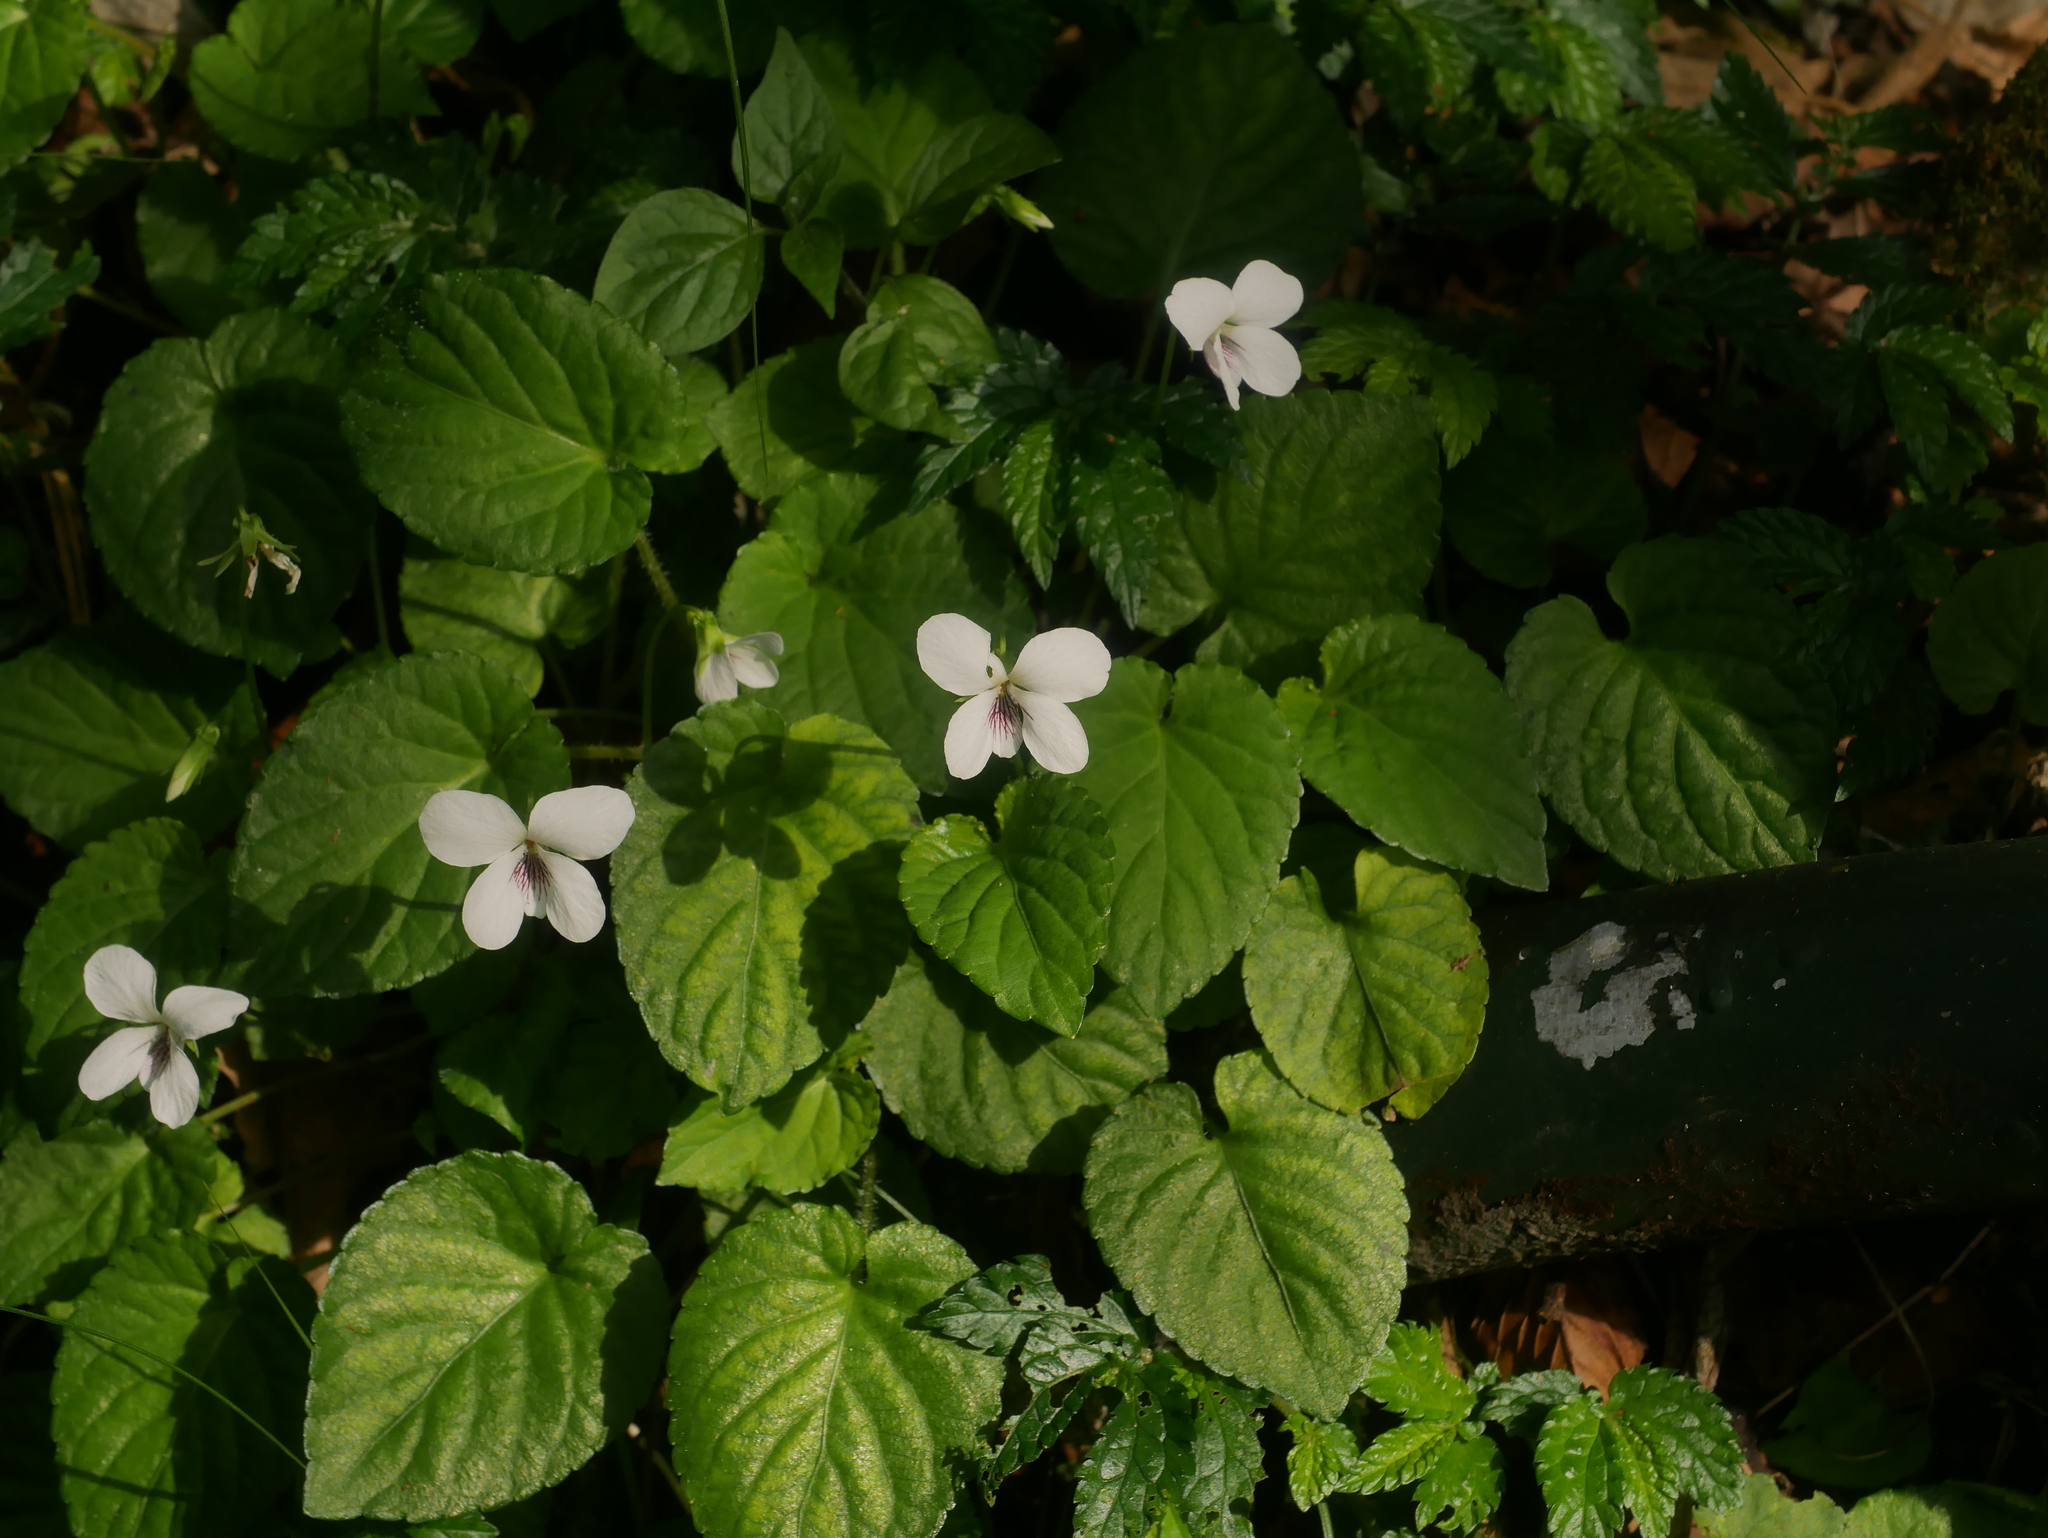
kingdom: Plantae
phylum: Tracheophyta
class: Magnoliopsida
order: Malpighiales
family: Violaceae
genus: Viola
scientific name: Viola adenothrix
